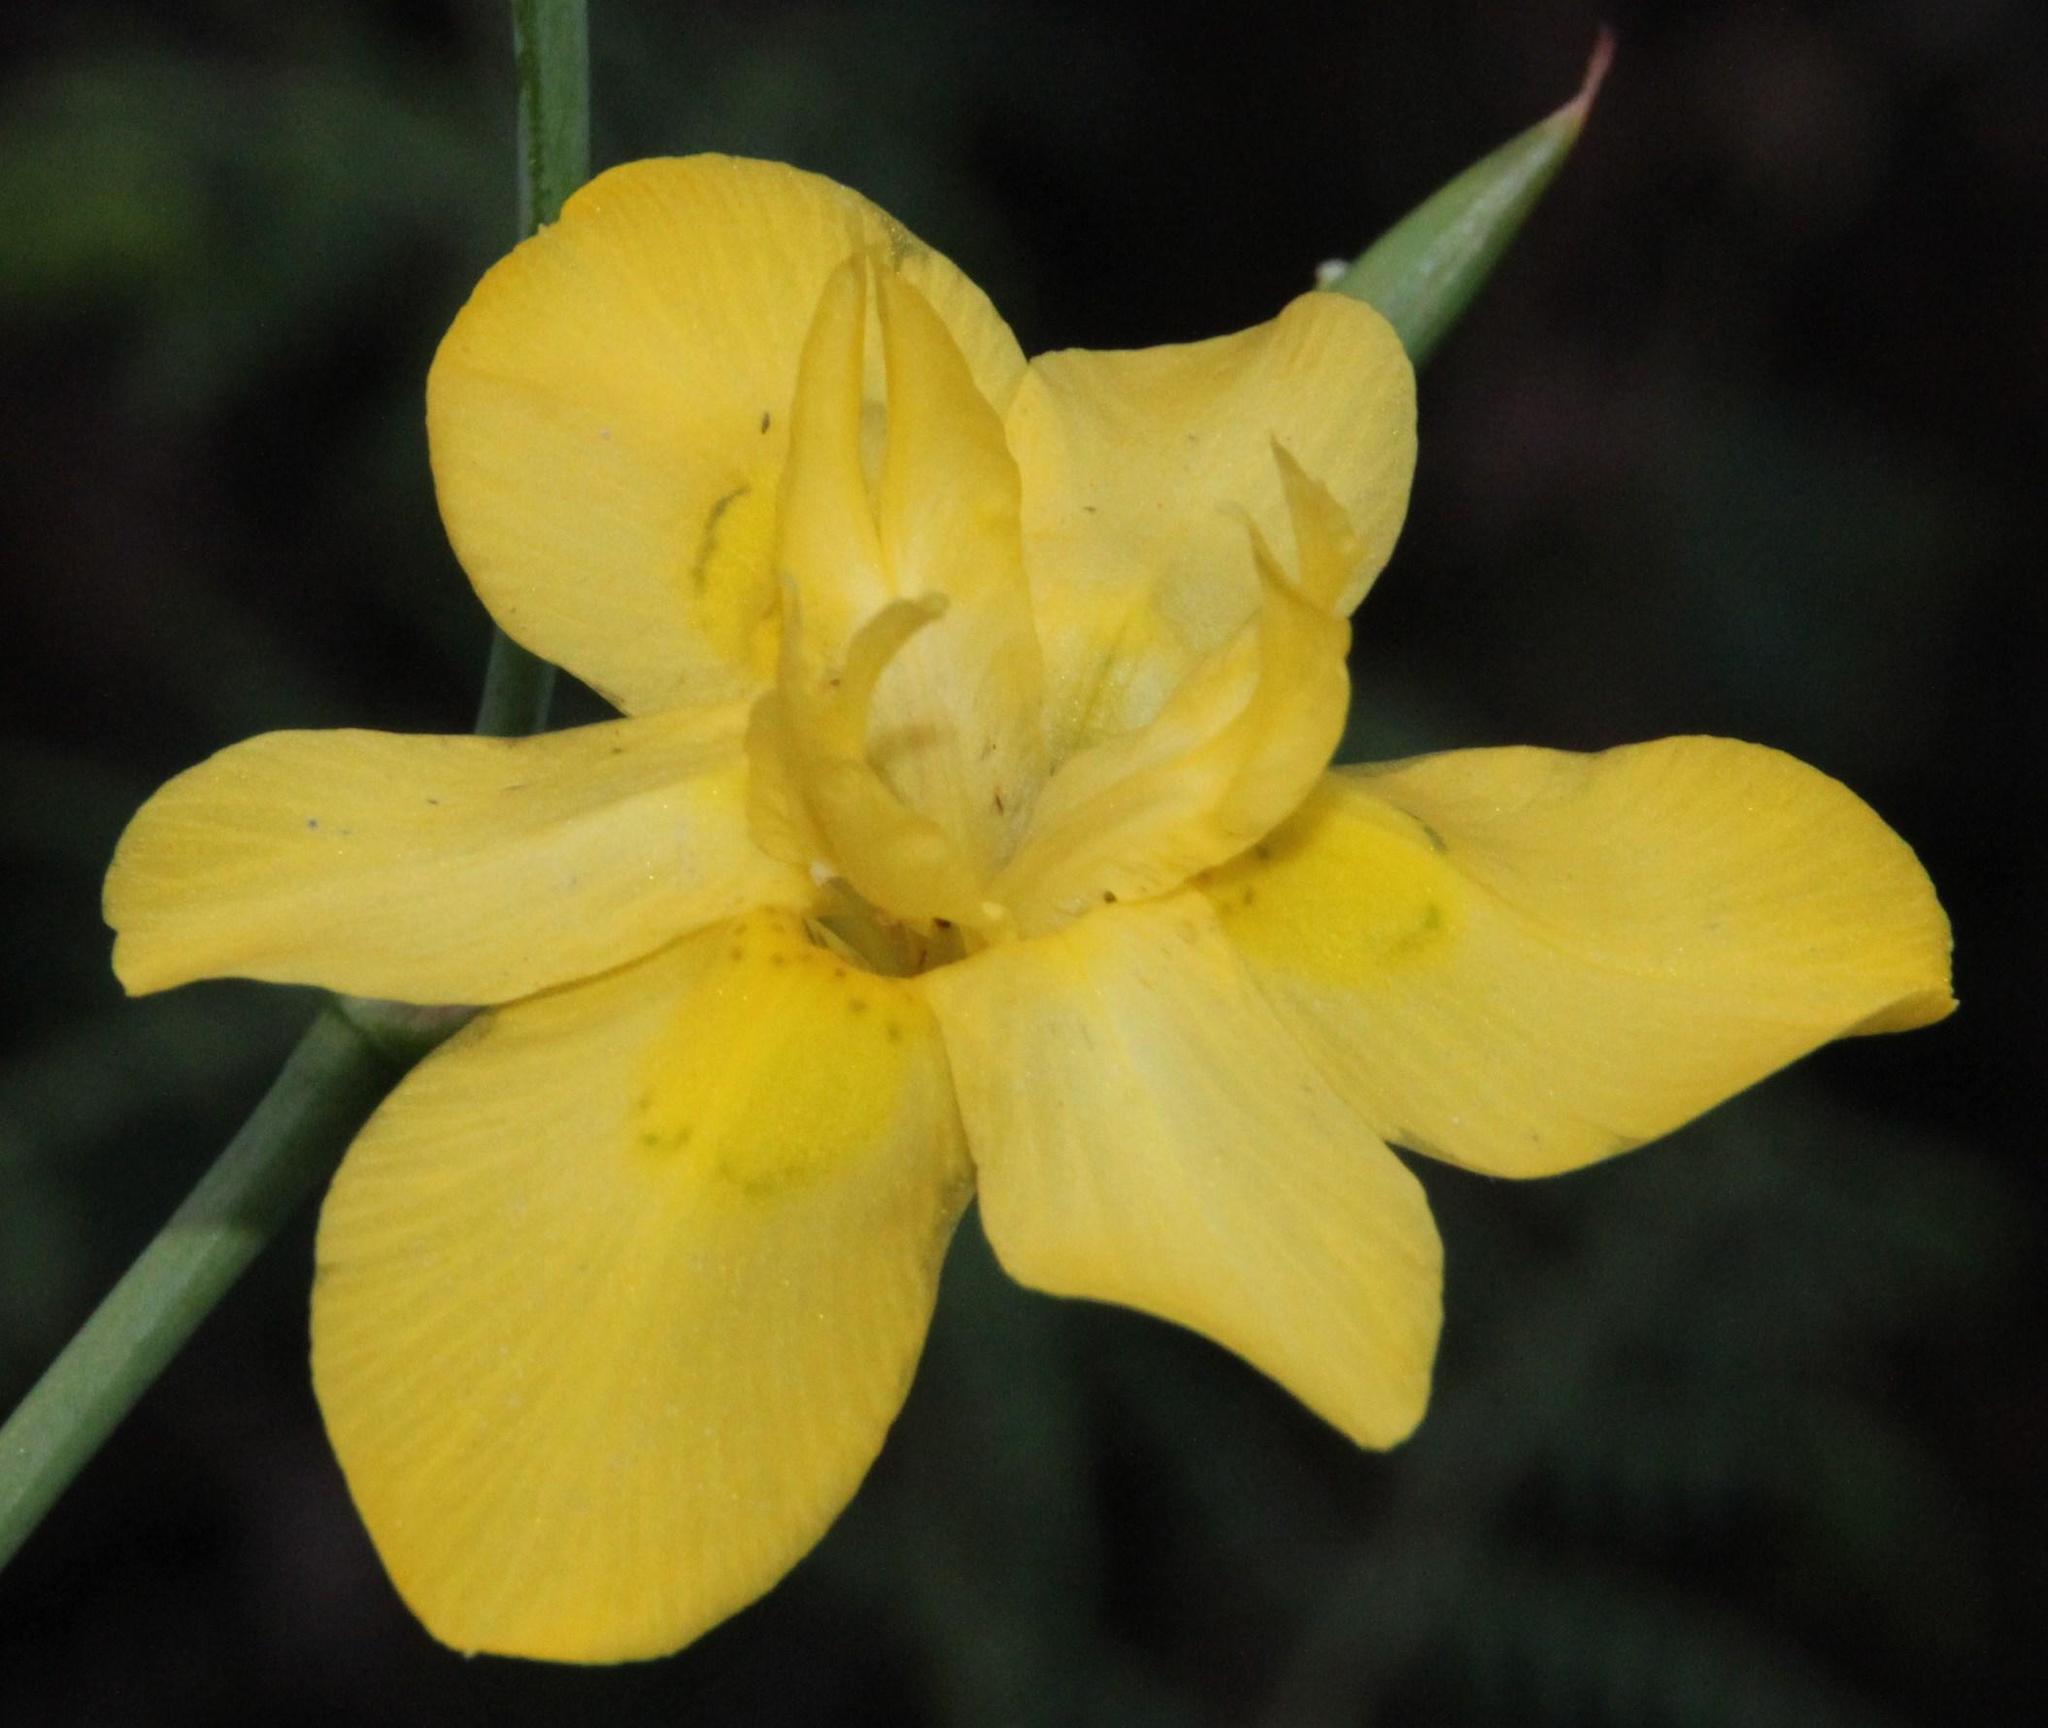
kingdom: Plantae
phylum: Tracheophyta
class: Liliopsida
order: Asparagales
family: Iridaceae
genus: Moraea
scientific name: Moraea ramosissima
